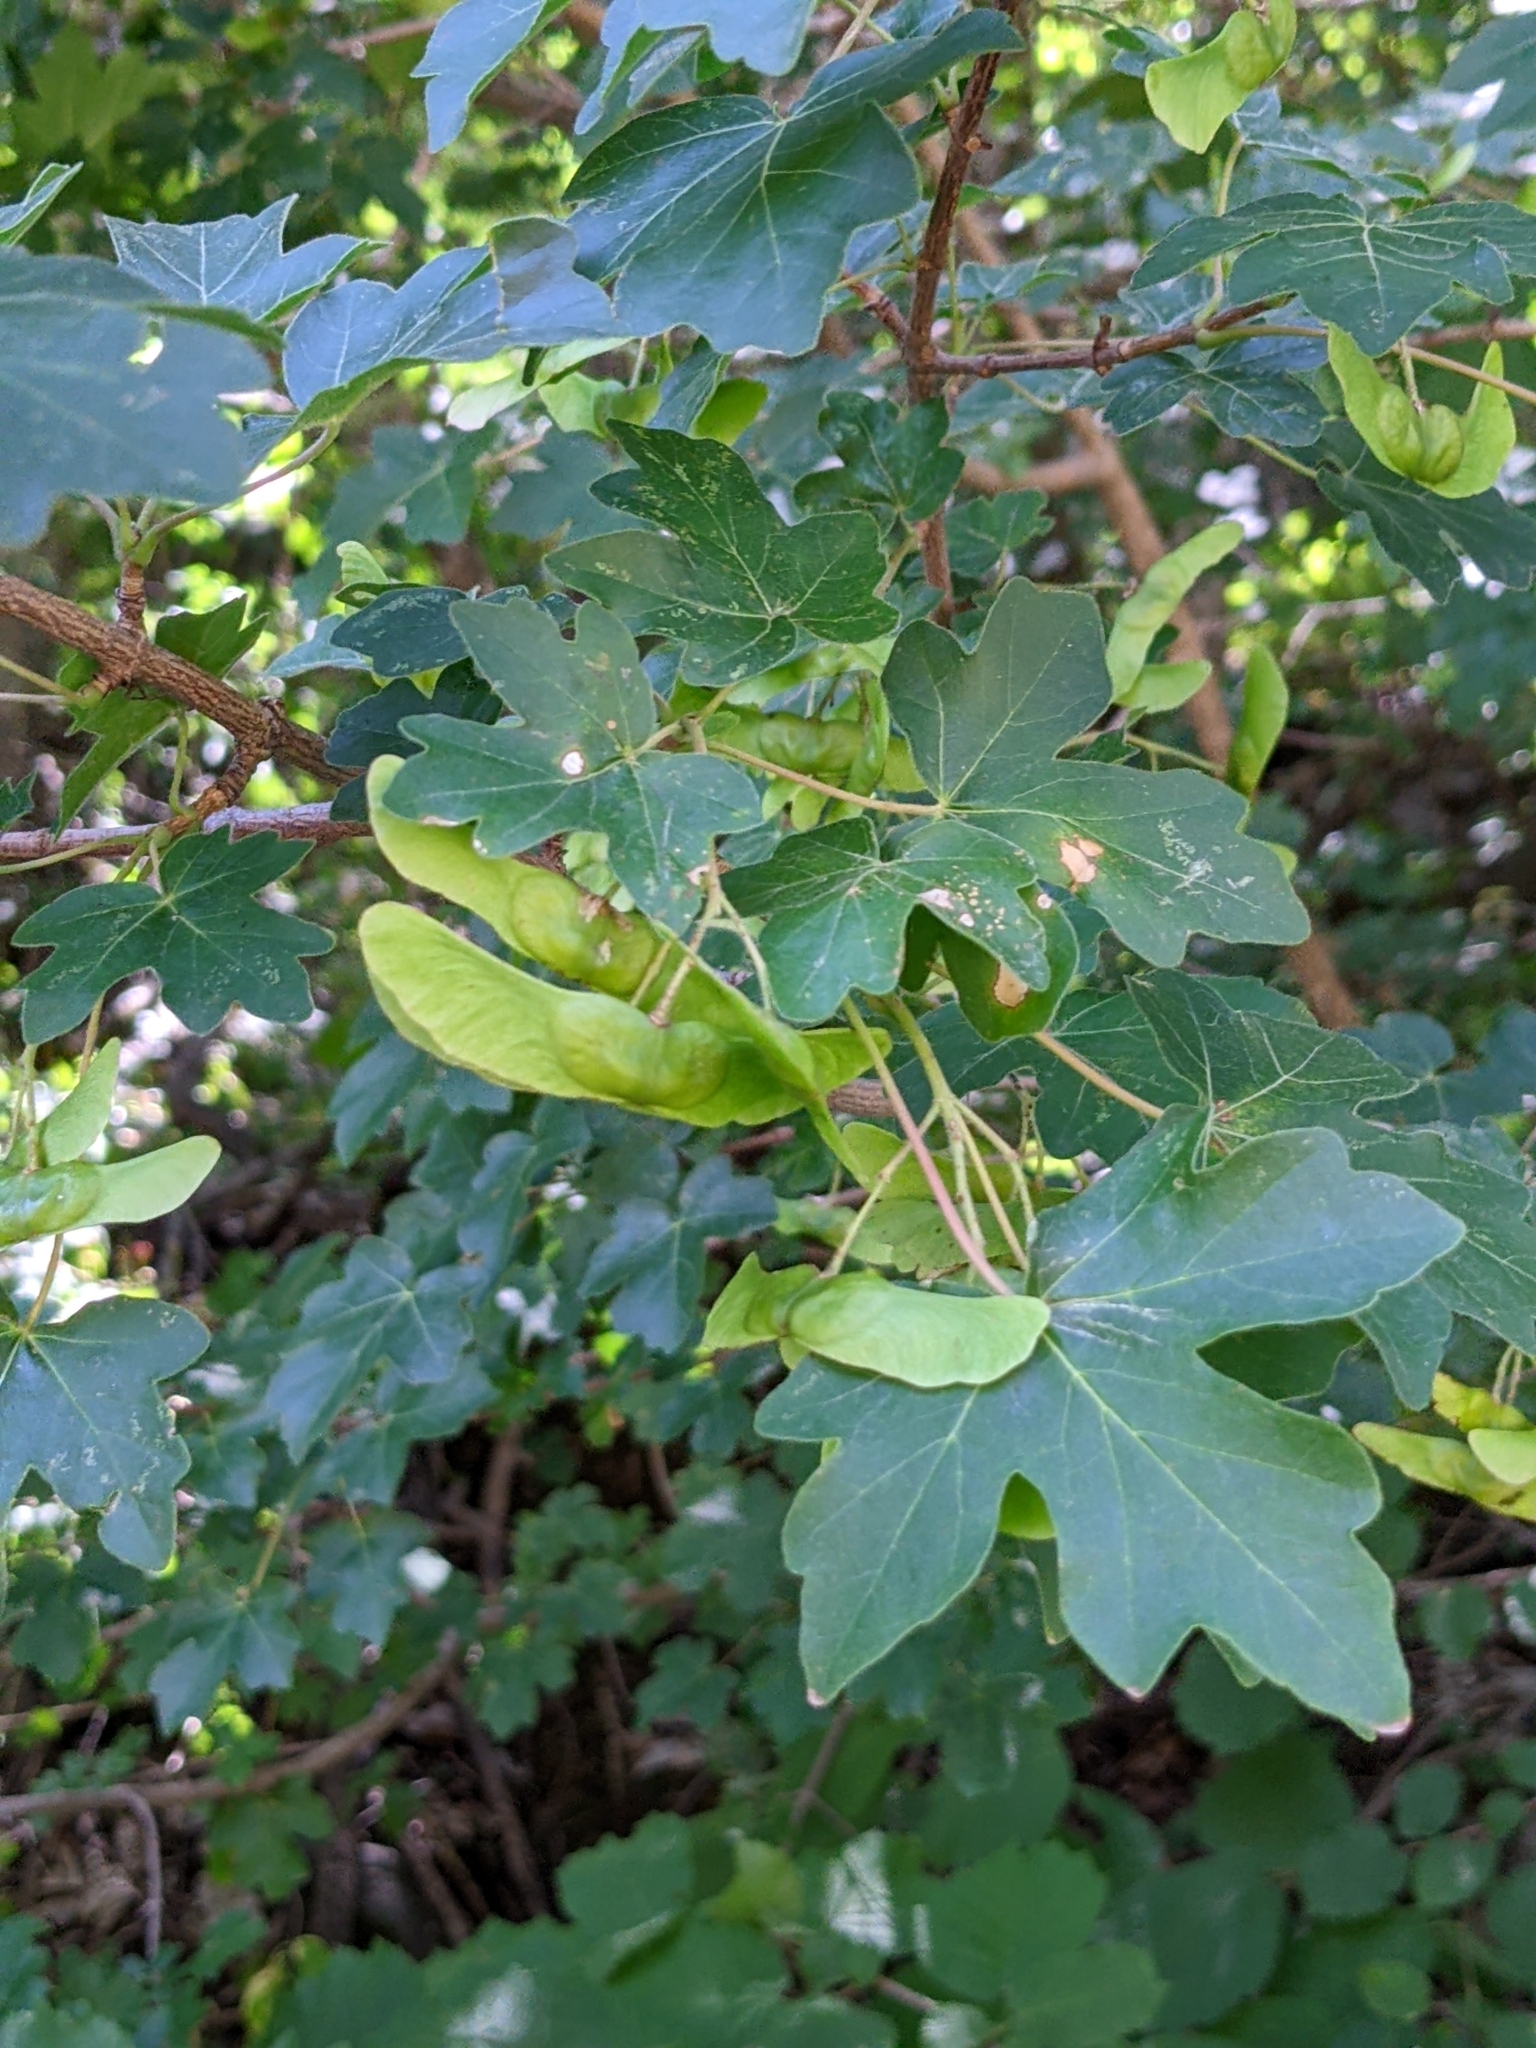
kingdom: Plantae
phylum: Tracheophyta
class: Magnoliopsida
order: Sapindales
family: Sapindaceae
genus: Acer
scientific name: Acer campestre
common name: Field maple
